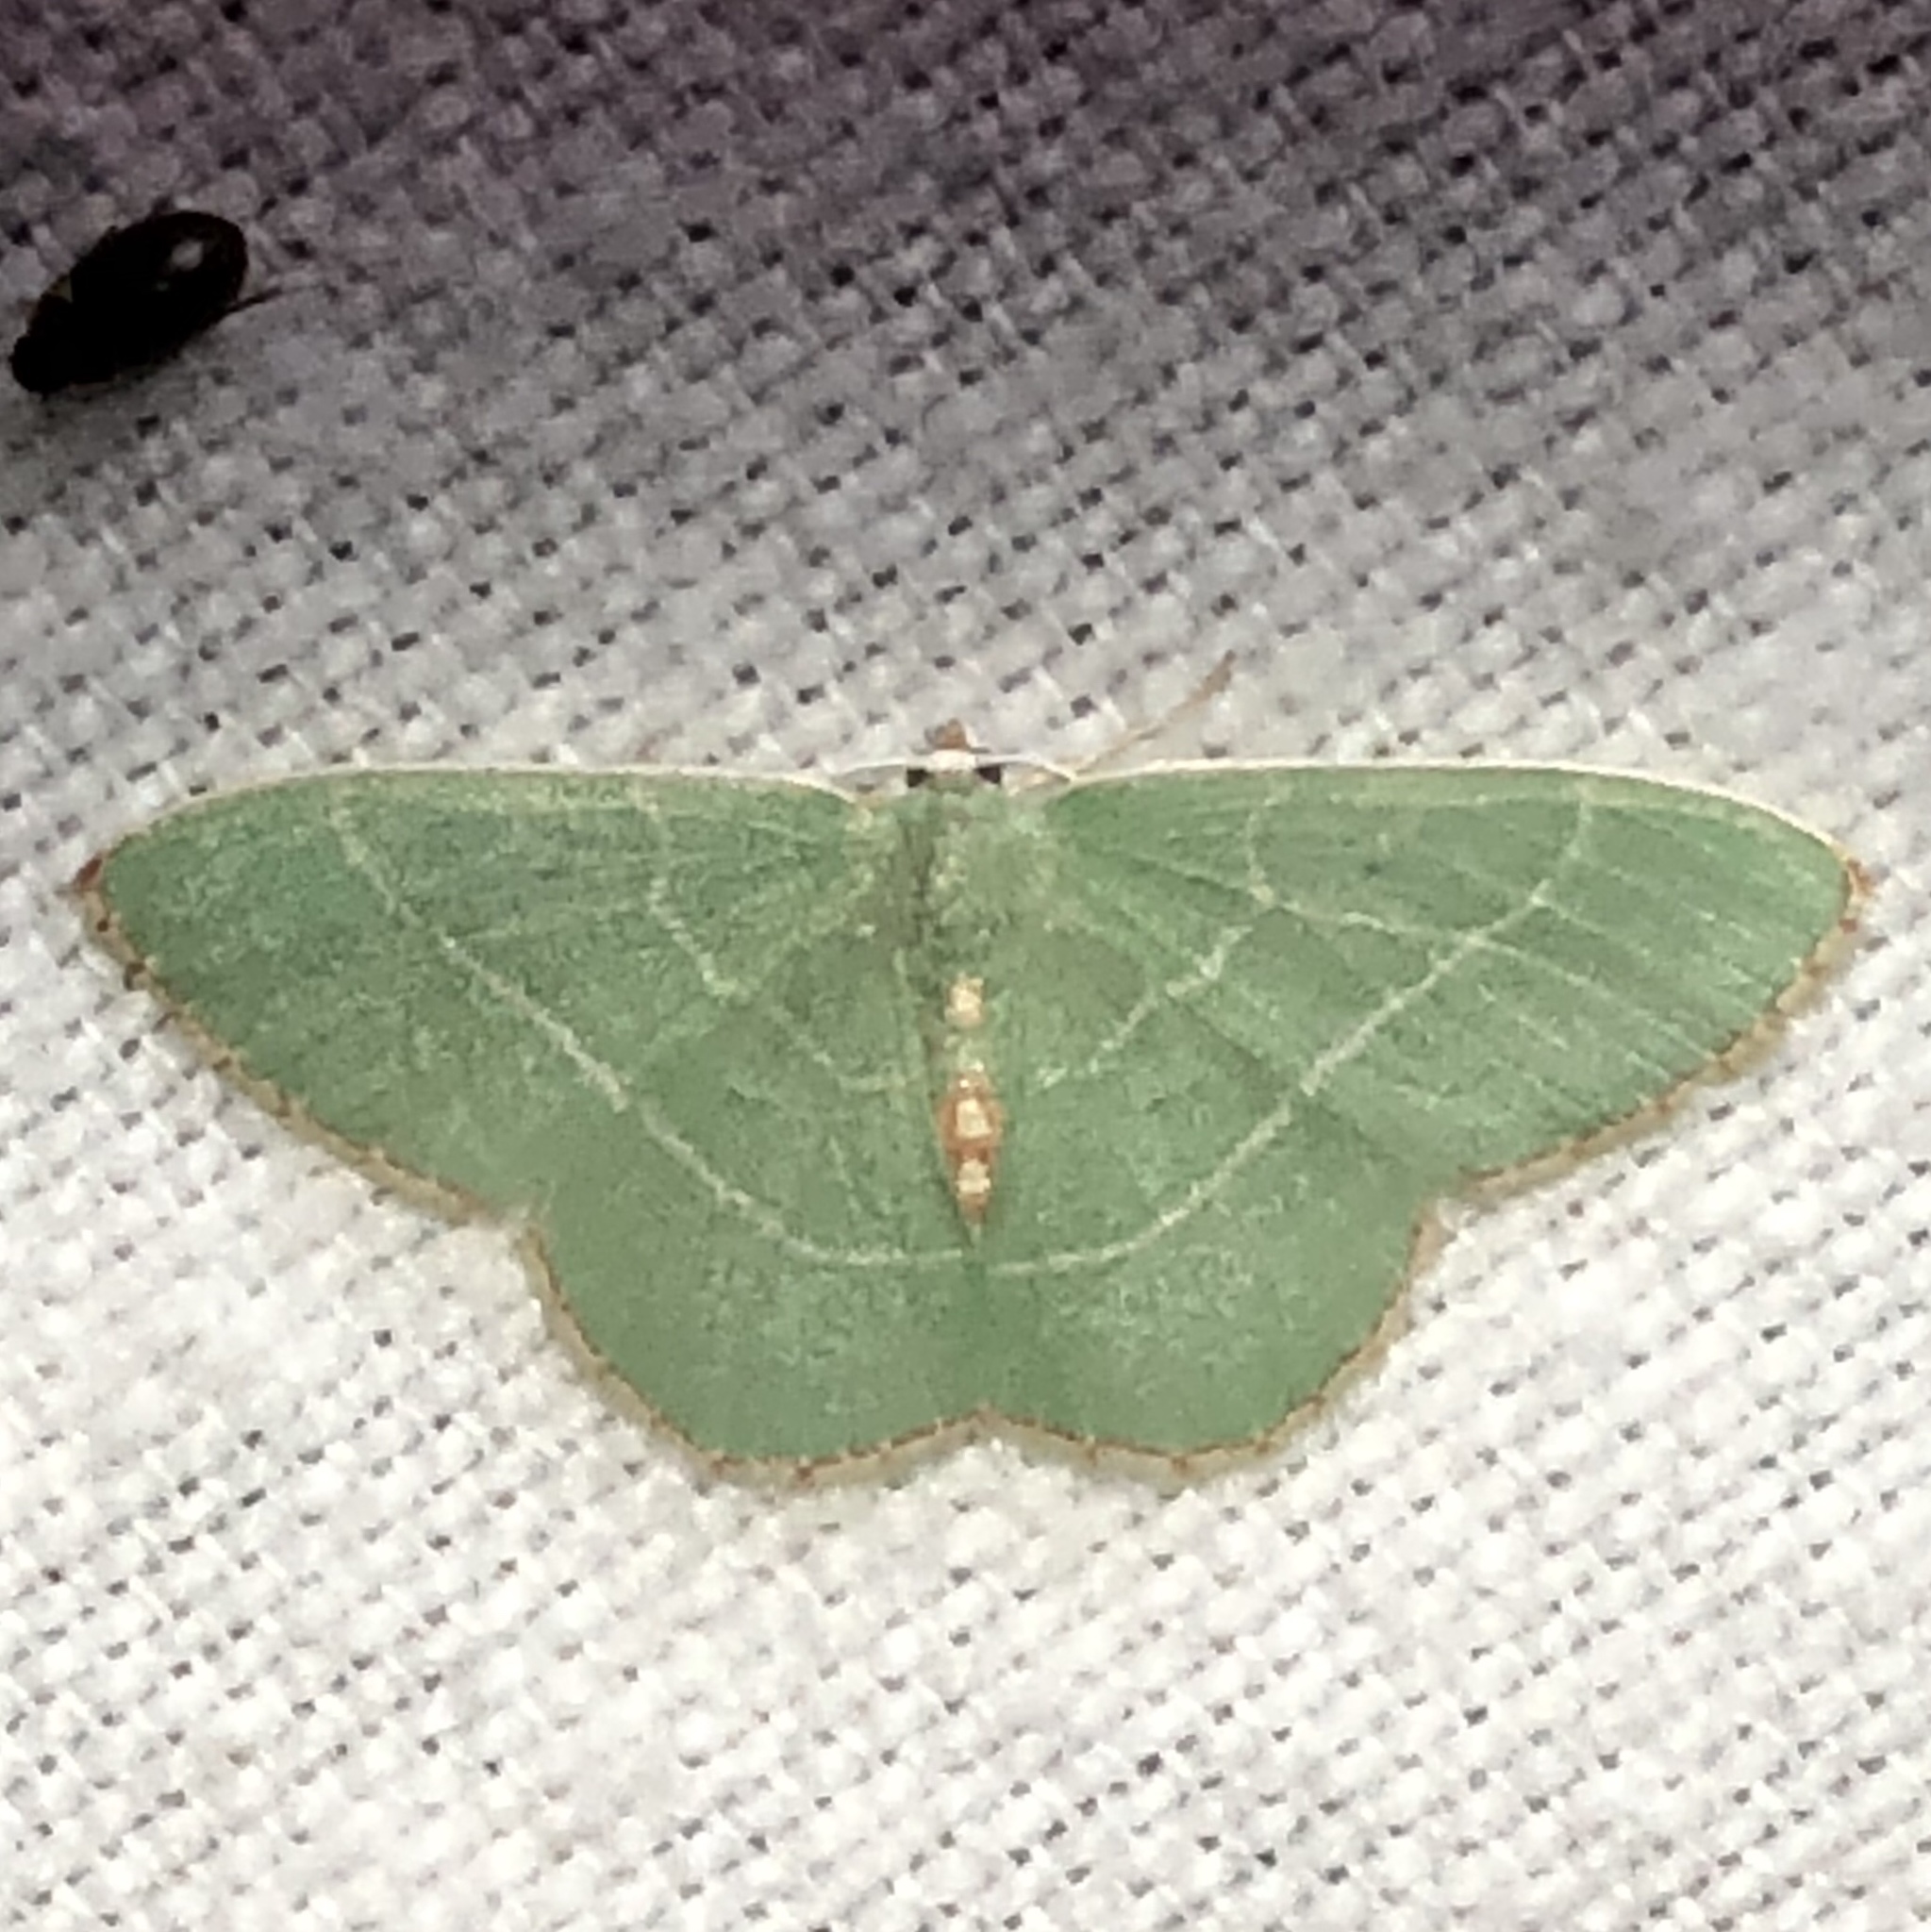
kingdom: Animalia
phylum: Arthropoda
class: Insecta
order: Lepidoptera
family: Geometridae
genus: Nemoria
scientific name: Nemoria bistriaria
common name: Red-fringed emerald
